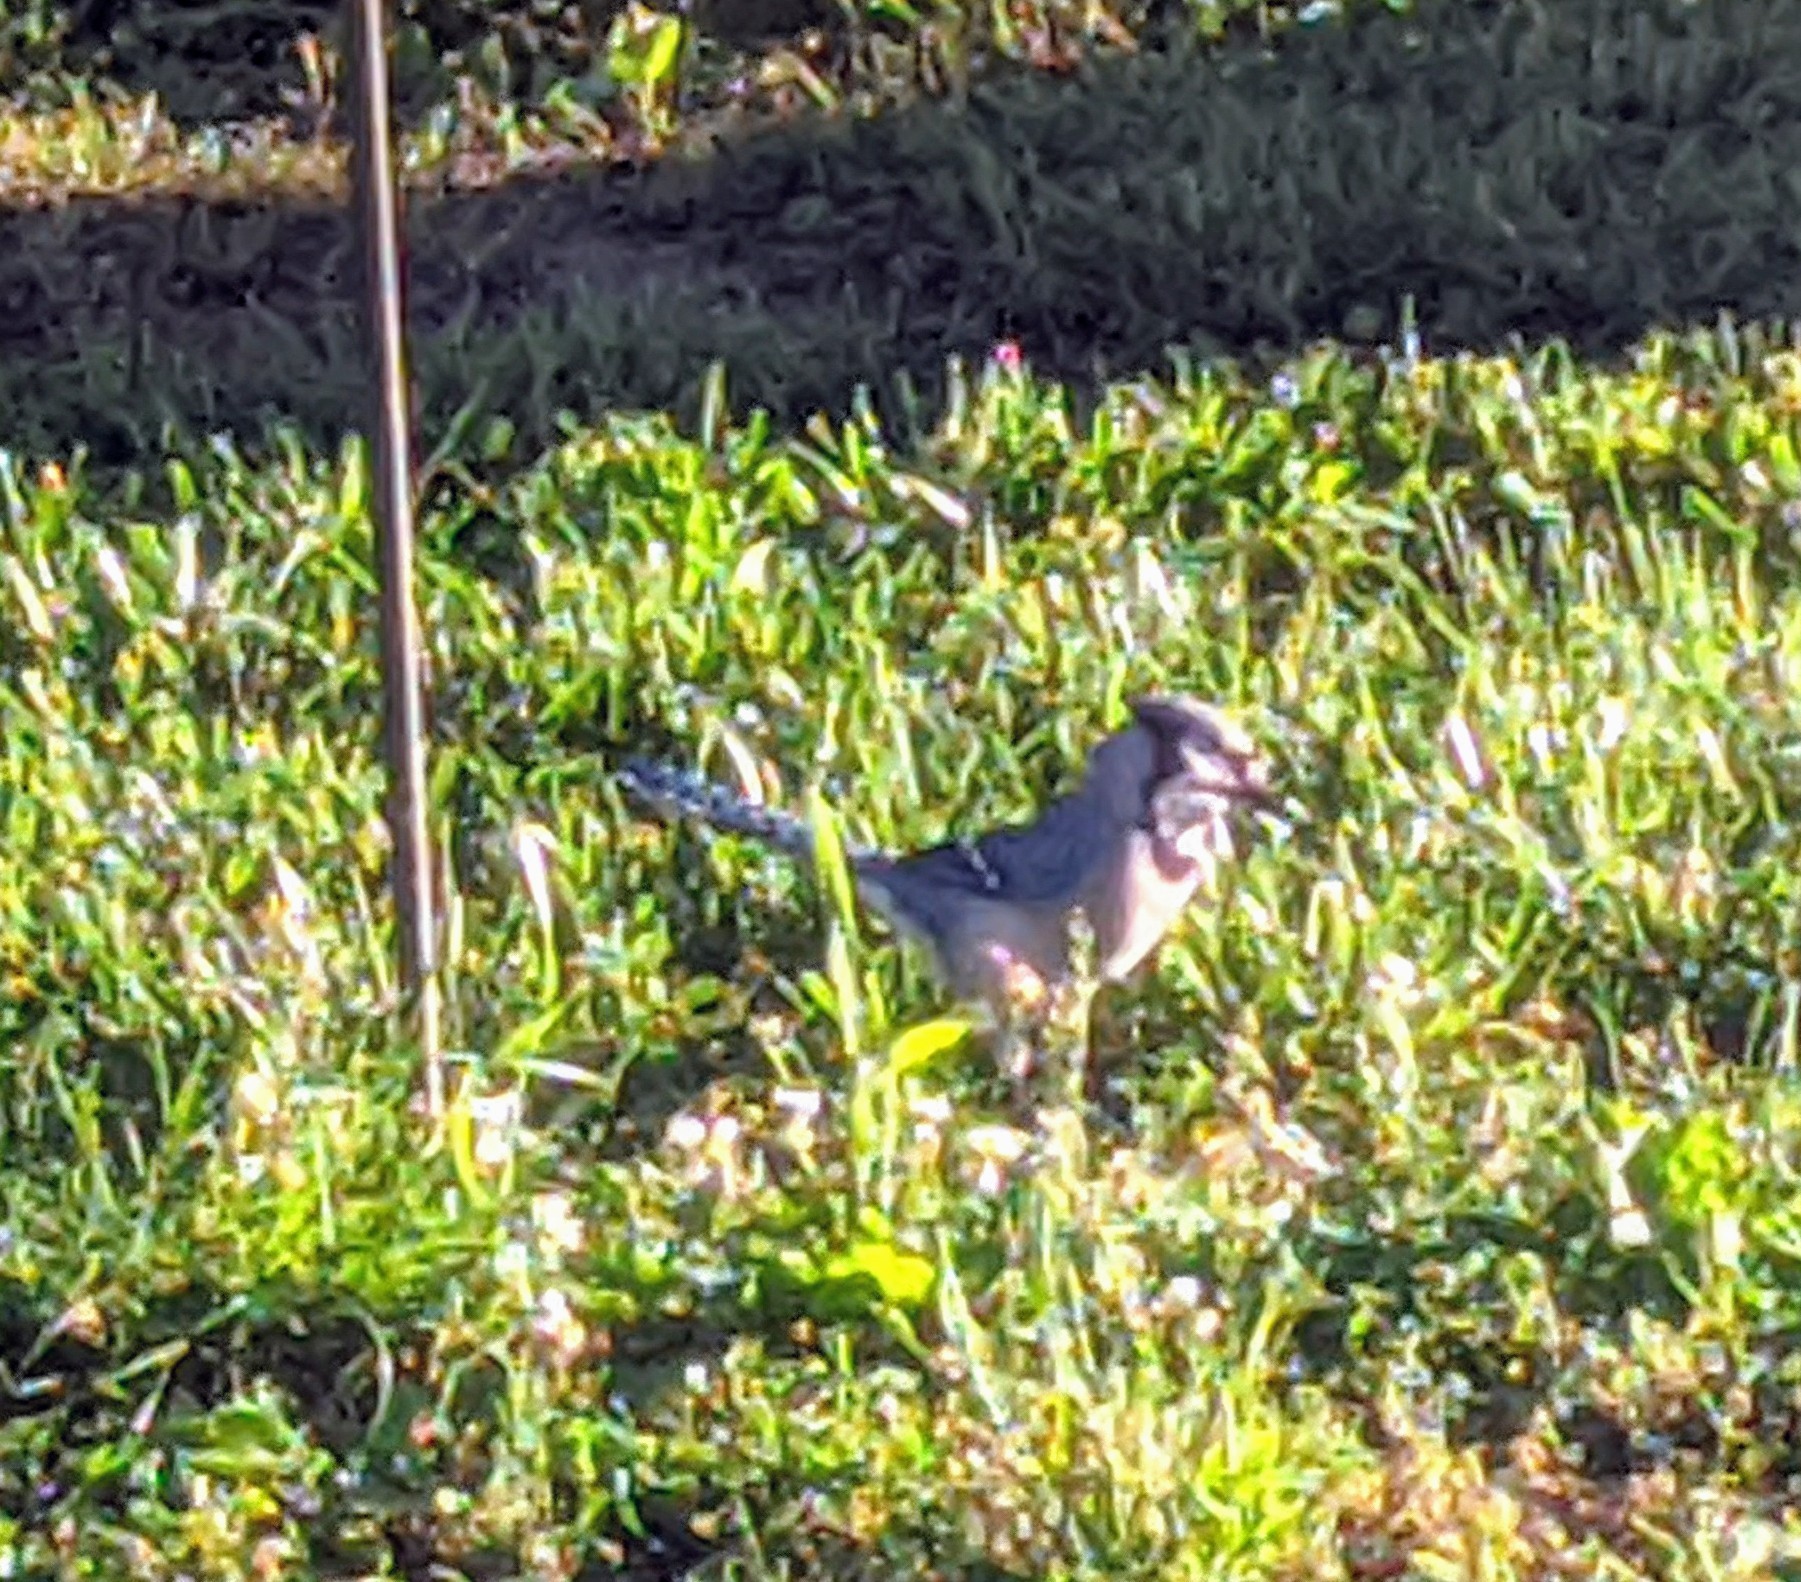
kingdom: Animalia
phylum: Chordata
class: Aves
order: Passeriformes
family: Corvidae
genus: Cyanocitta
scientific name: Cyanocitta cristata
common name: Blue jay
